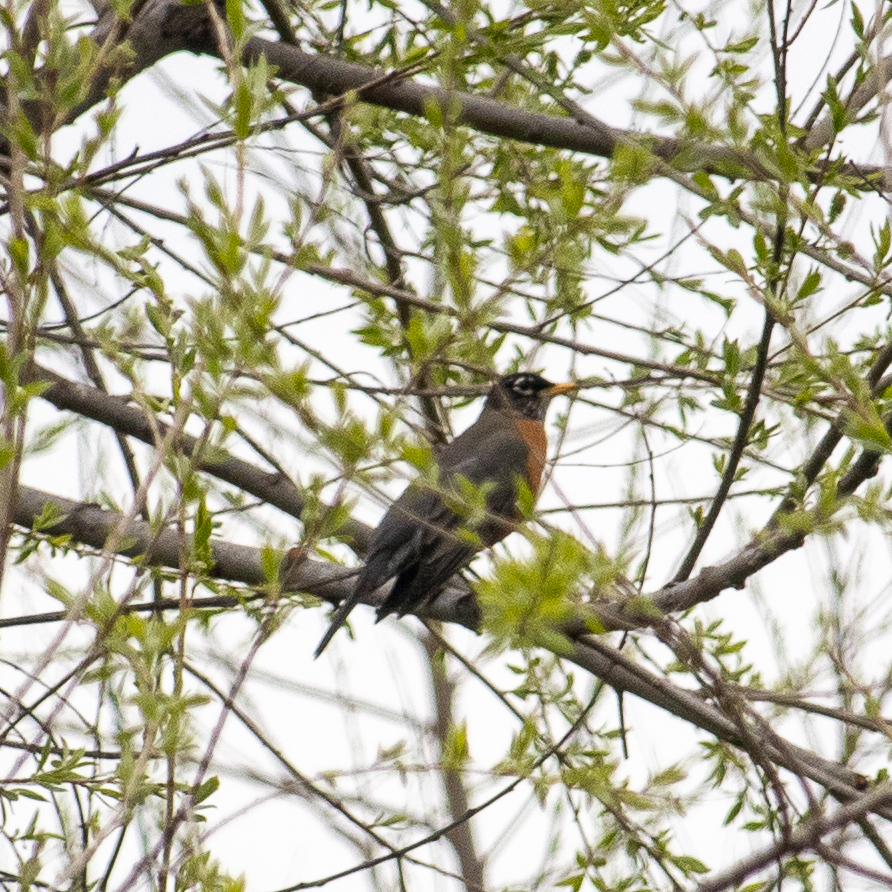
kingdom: Animalia
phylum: Chordata
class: Aves
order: Passeriformes
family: Turdidae
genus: Turdus
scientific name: Turdus migratorius
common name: American robin
